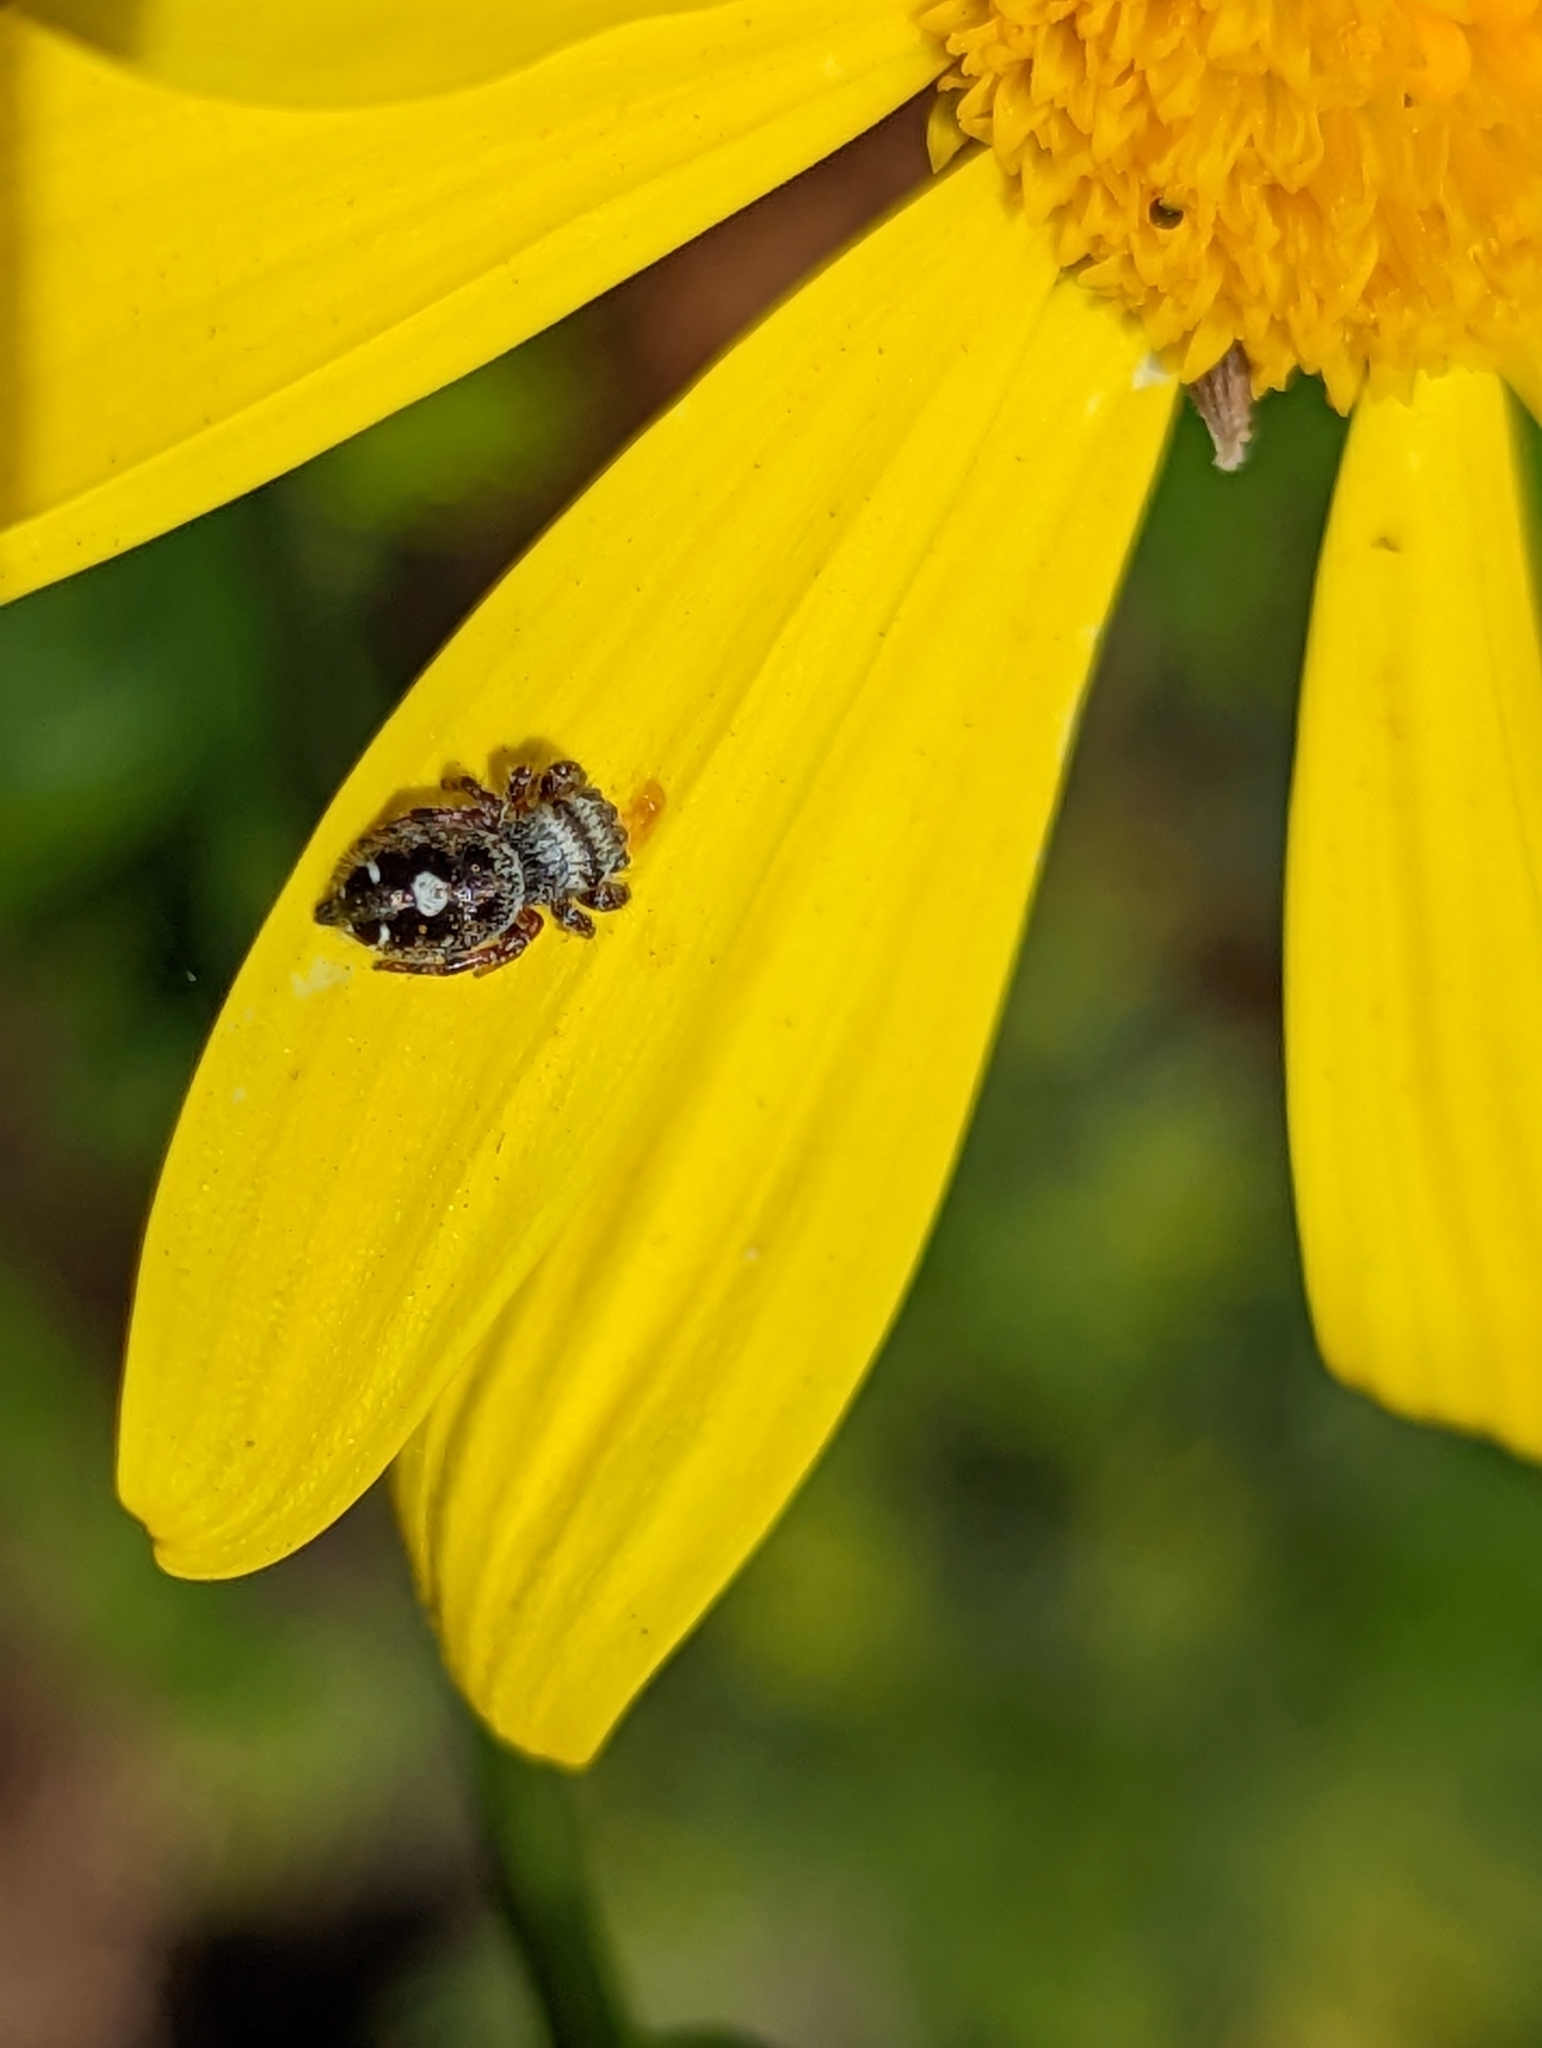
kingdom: Animalia
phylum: Arthropoda
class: Arachnida
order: Araneae
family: Salticidae
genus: Phidippus
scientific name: Phidippus audax
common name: Bold jumper
